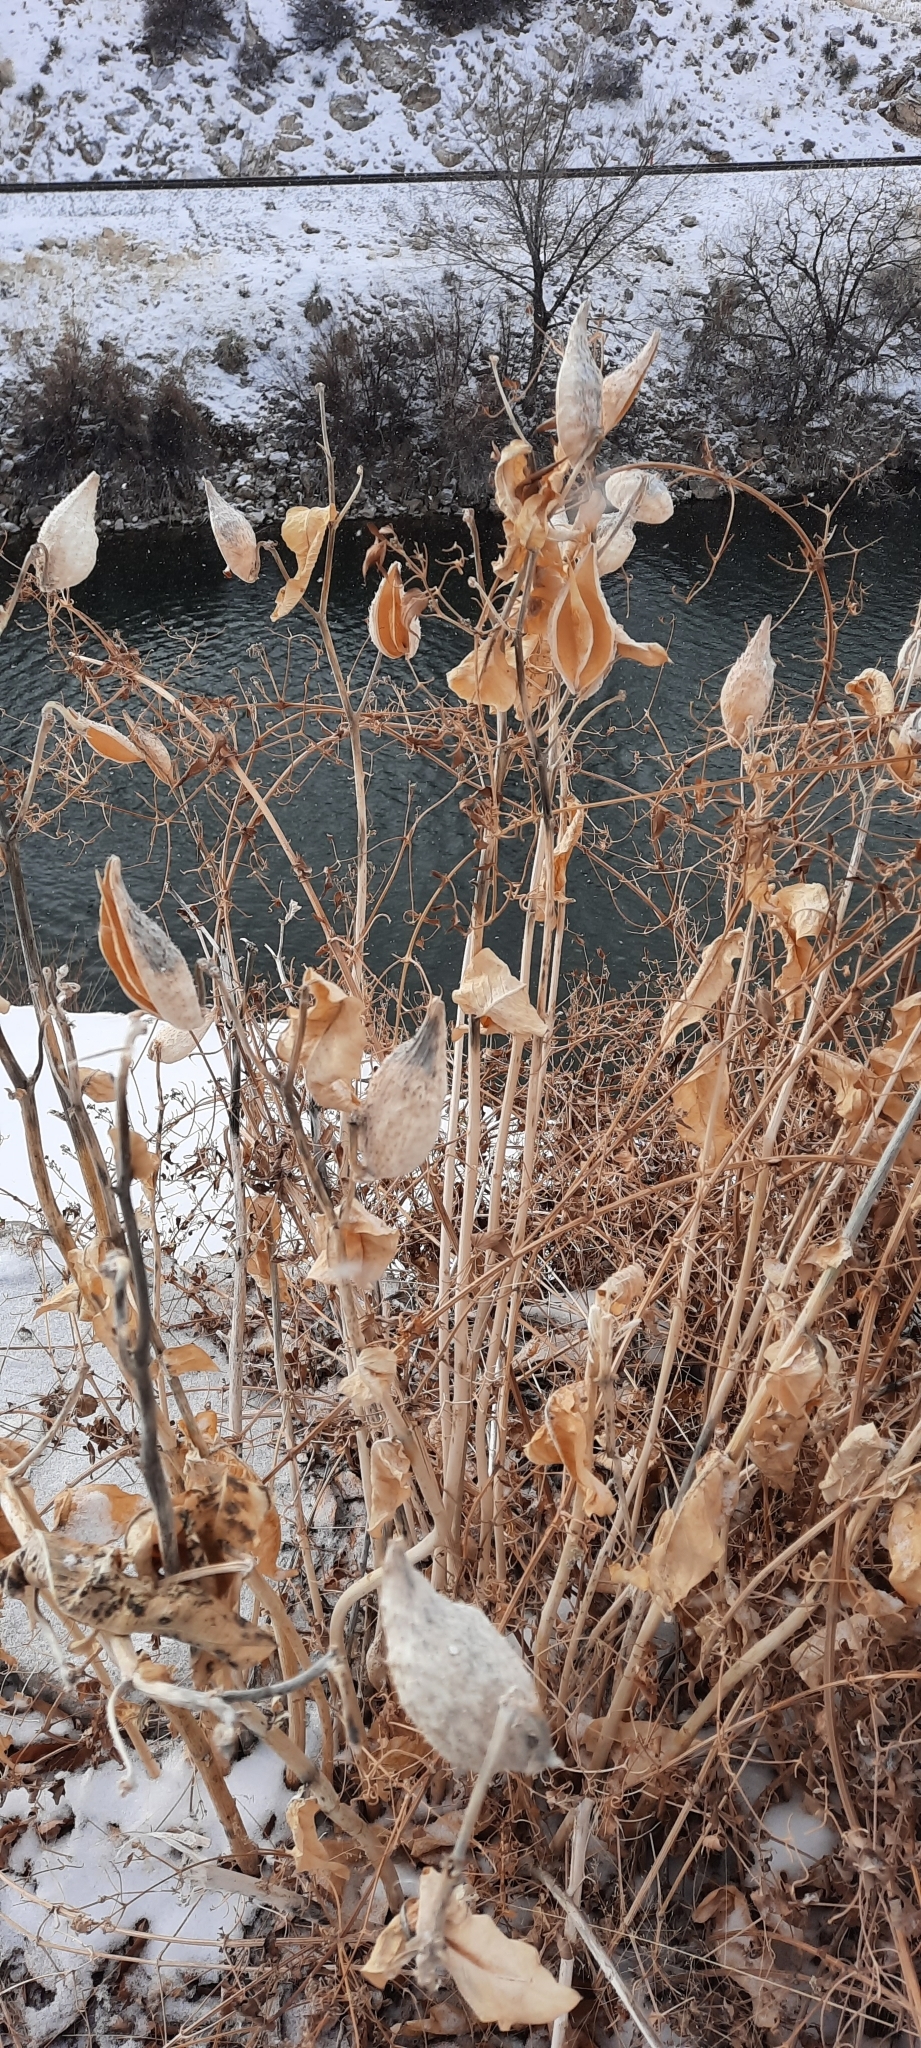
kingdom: Plantae
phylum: Tracheophyta
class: Magnoliopsida
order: Gentianales
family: Apocynaceae
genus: Asclepias
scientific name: Asclepias speciosa
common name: Showy milkweed
